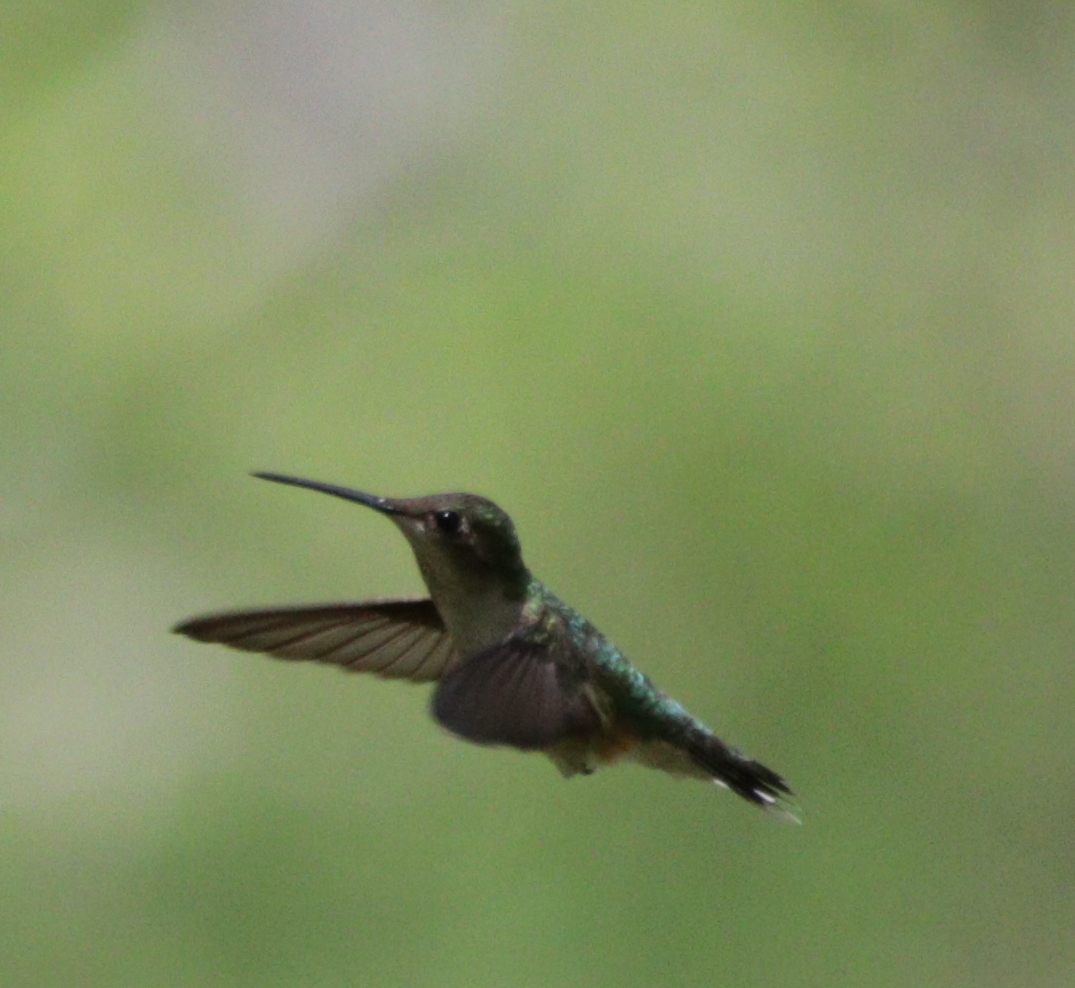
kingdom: Animalia
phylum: Chordata
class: Aves
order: Apodiformes
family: Trochilidae
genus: Archilochus
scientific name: Archilochus colubris
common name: Ruby-throated hummingbird
